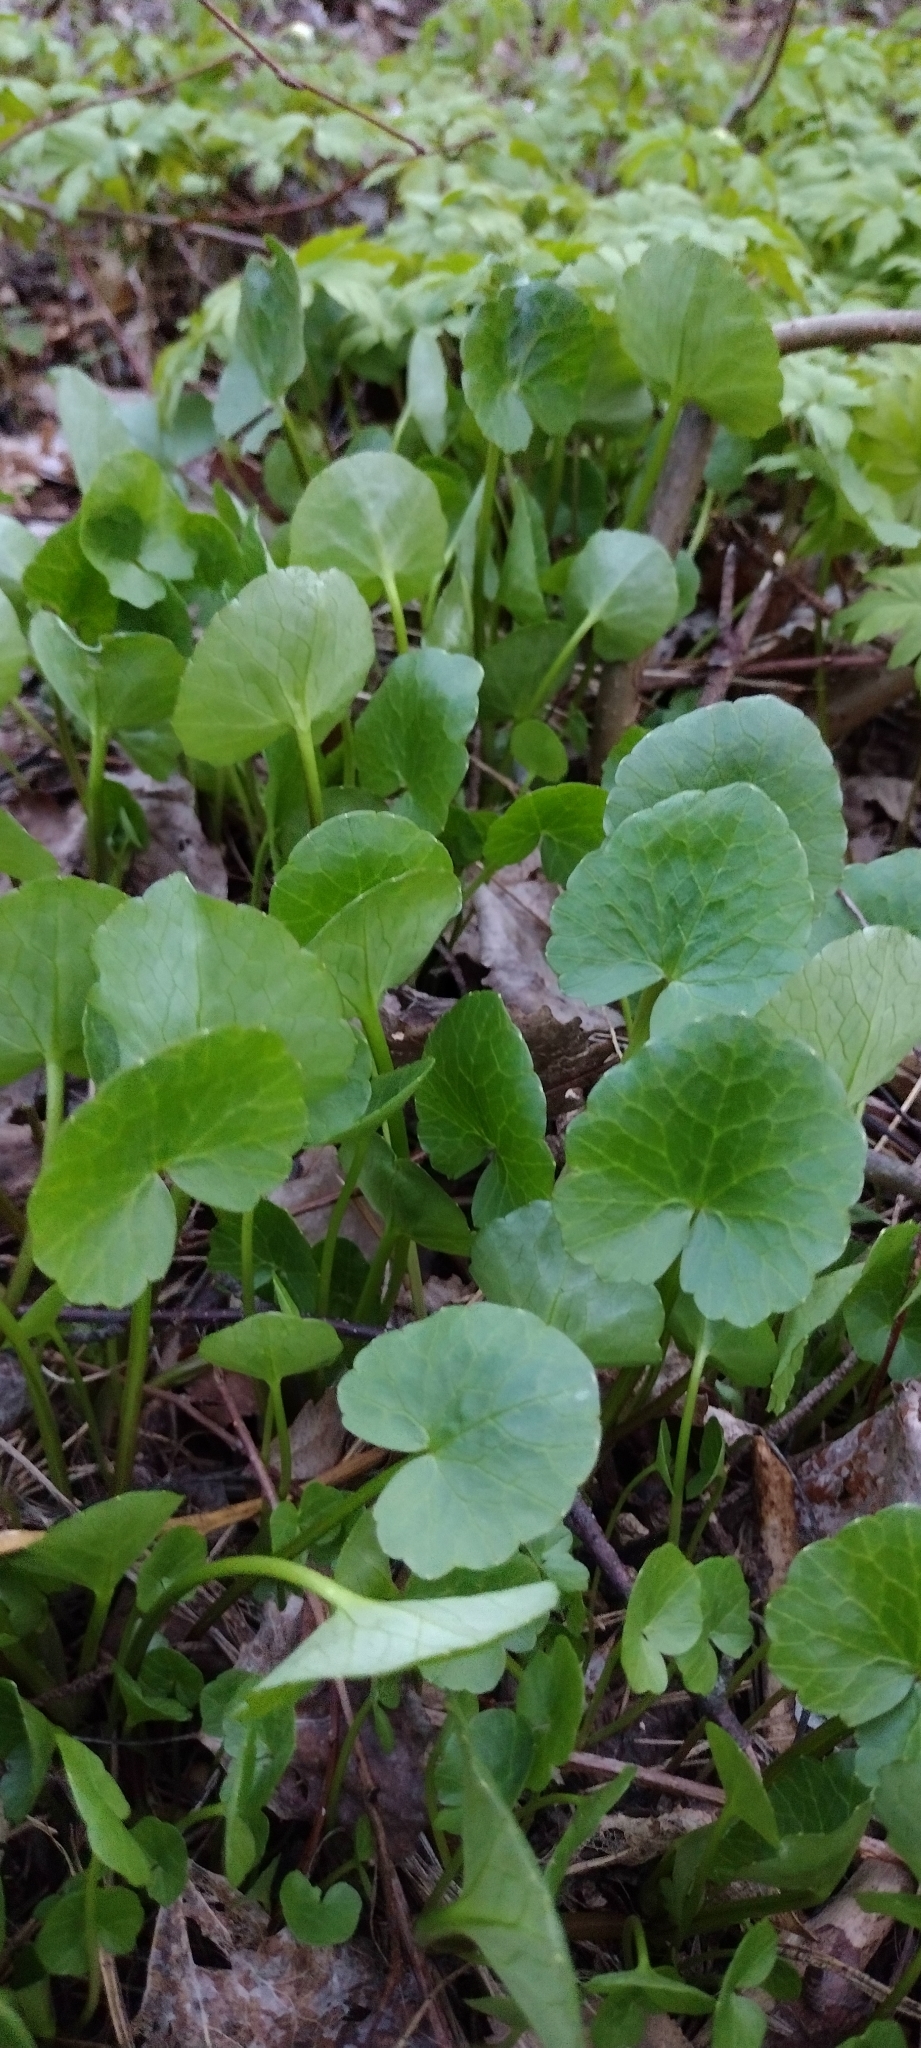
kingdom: Plantae
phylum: Tracheophyta
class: Magnoliopsida
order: Ranunculales
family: Ranunculaceae
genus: Ficaria
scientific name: Ficaria verna
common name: Lesser celandine
